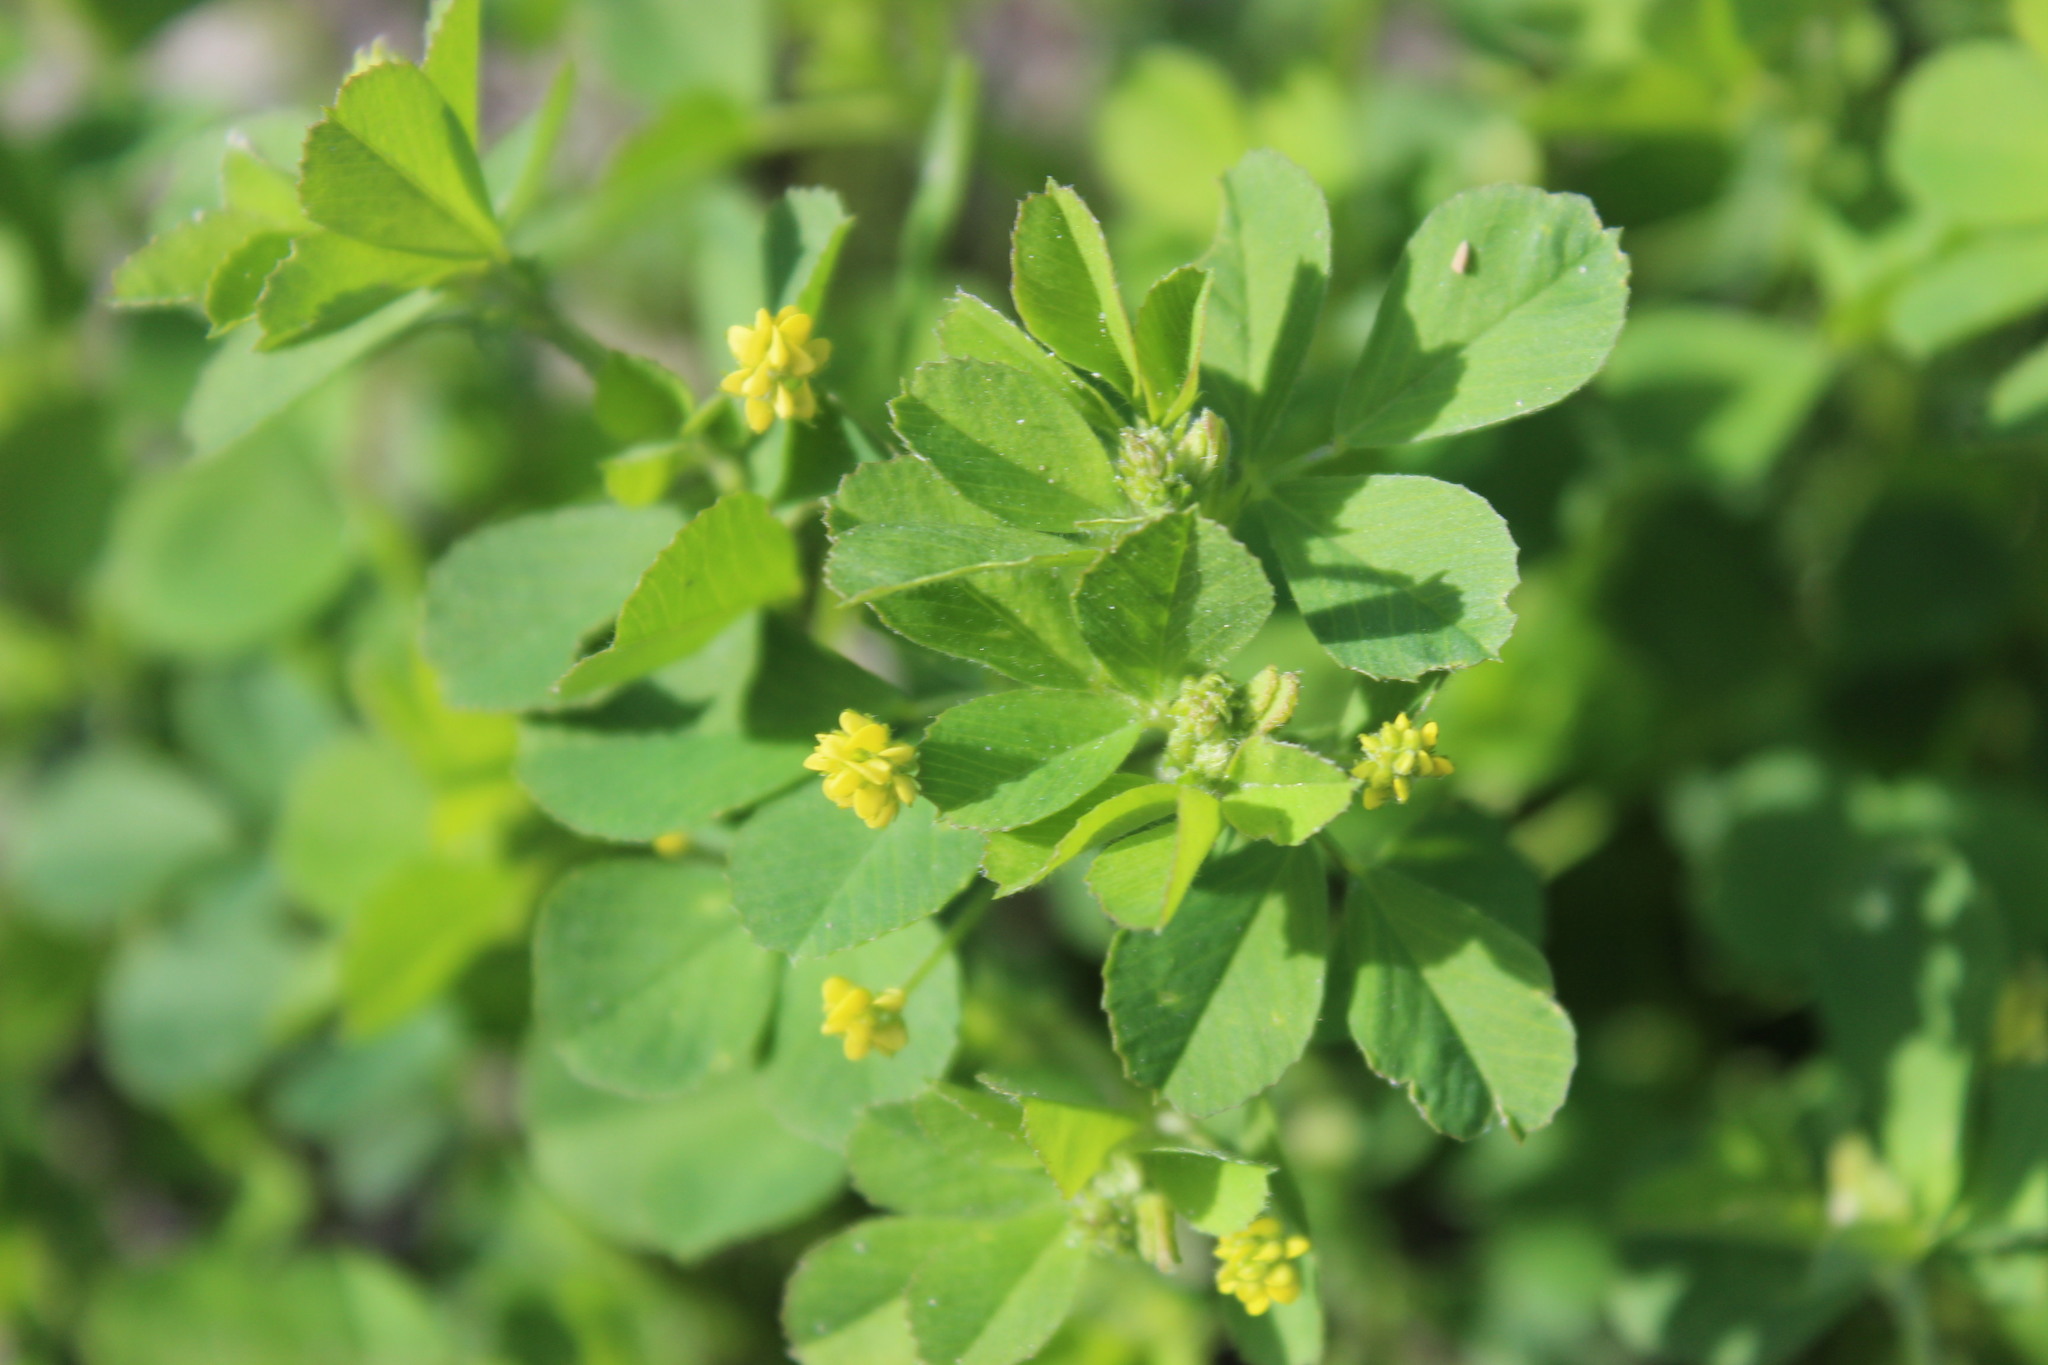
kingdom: Plantae
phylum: Tracheophyta
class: Magnoliopsida
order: Fabales
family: Fabaceae
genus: Medicago
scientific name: Medicago lupulina
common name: Black medick
